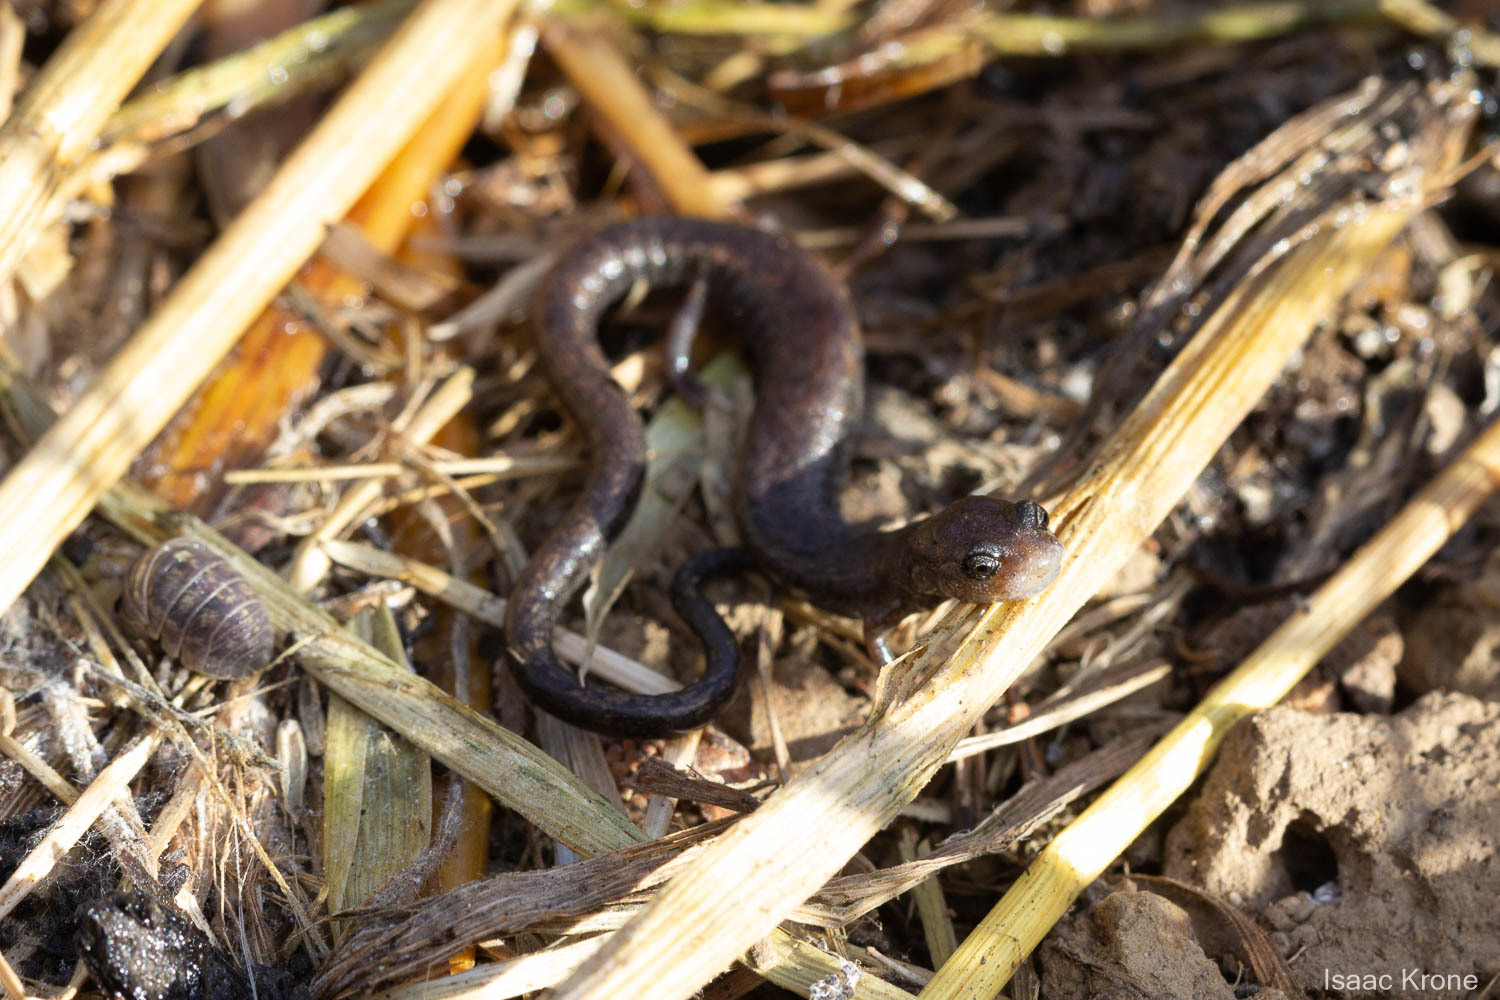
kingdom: Animalia
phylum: Chordata
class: Amphibia
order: Caudata
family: Plethodontidae
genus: Batrachoseps
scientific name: Batrachoseps attenuatus
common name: California slender salamander
